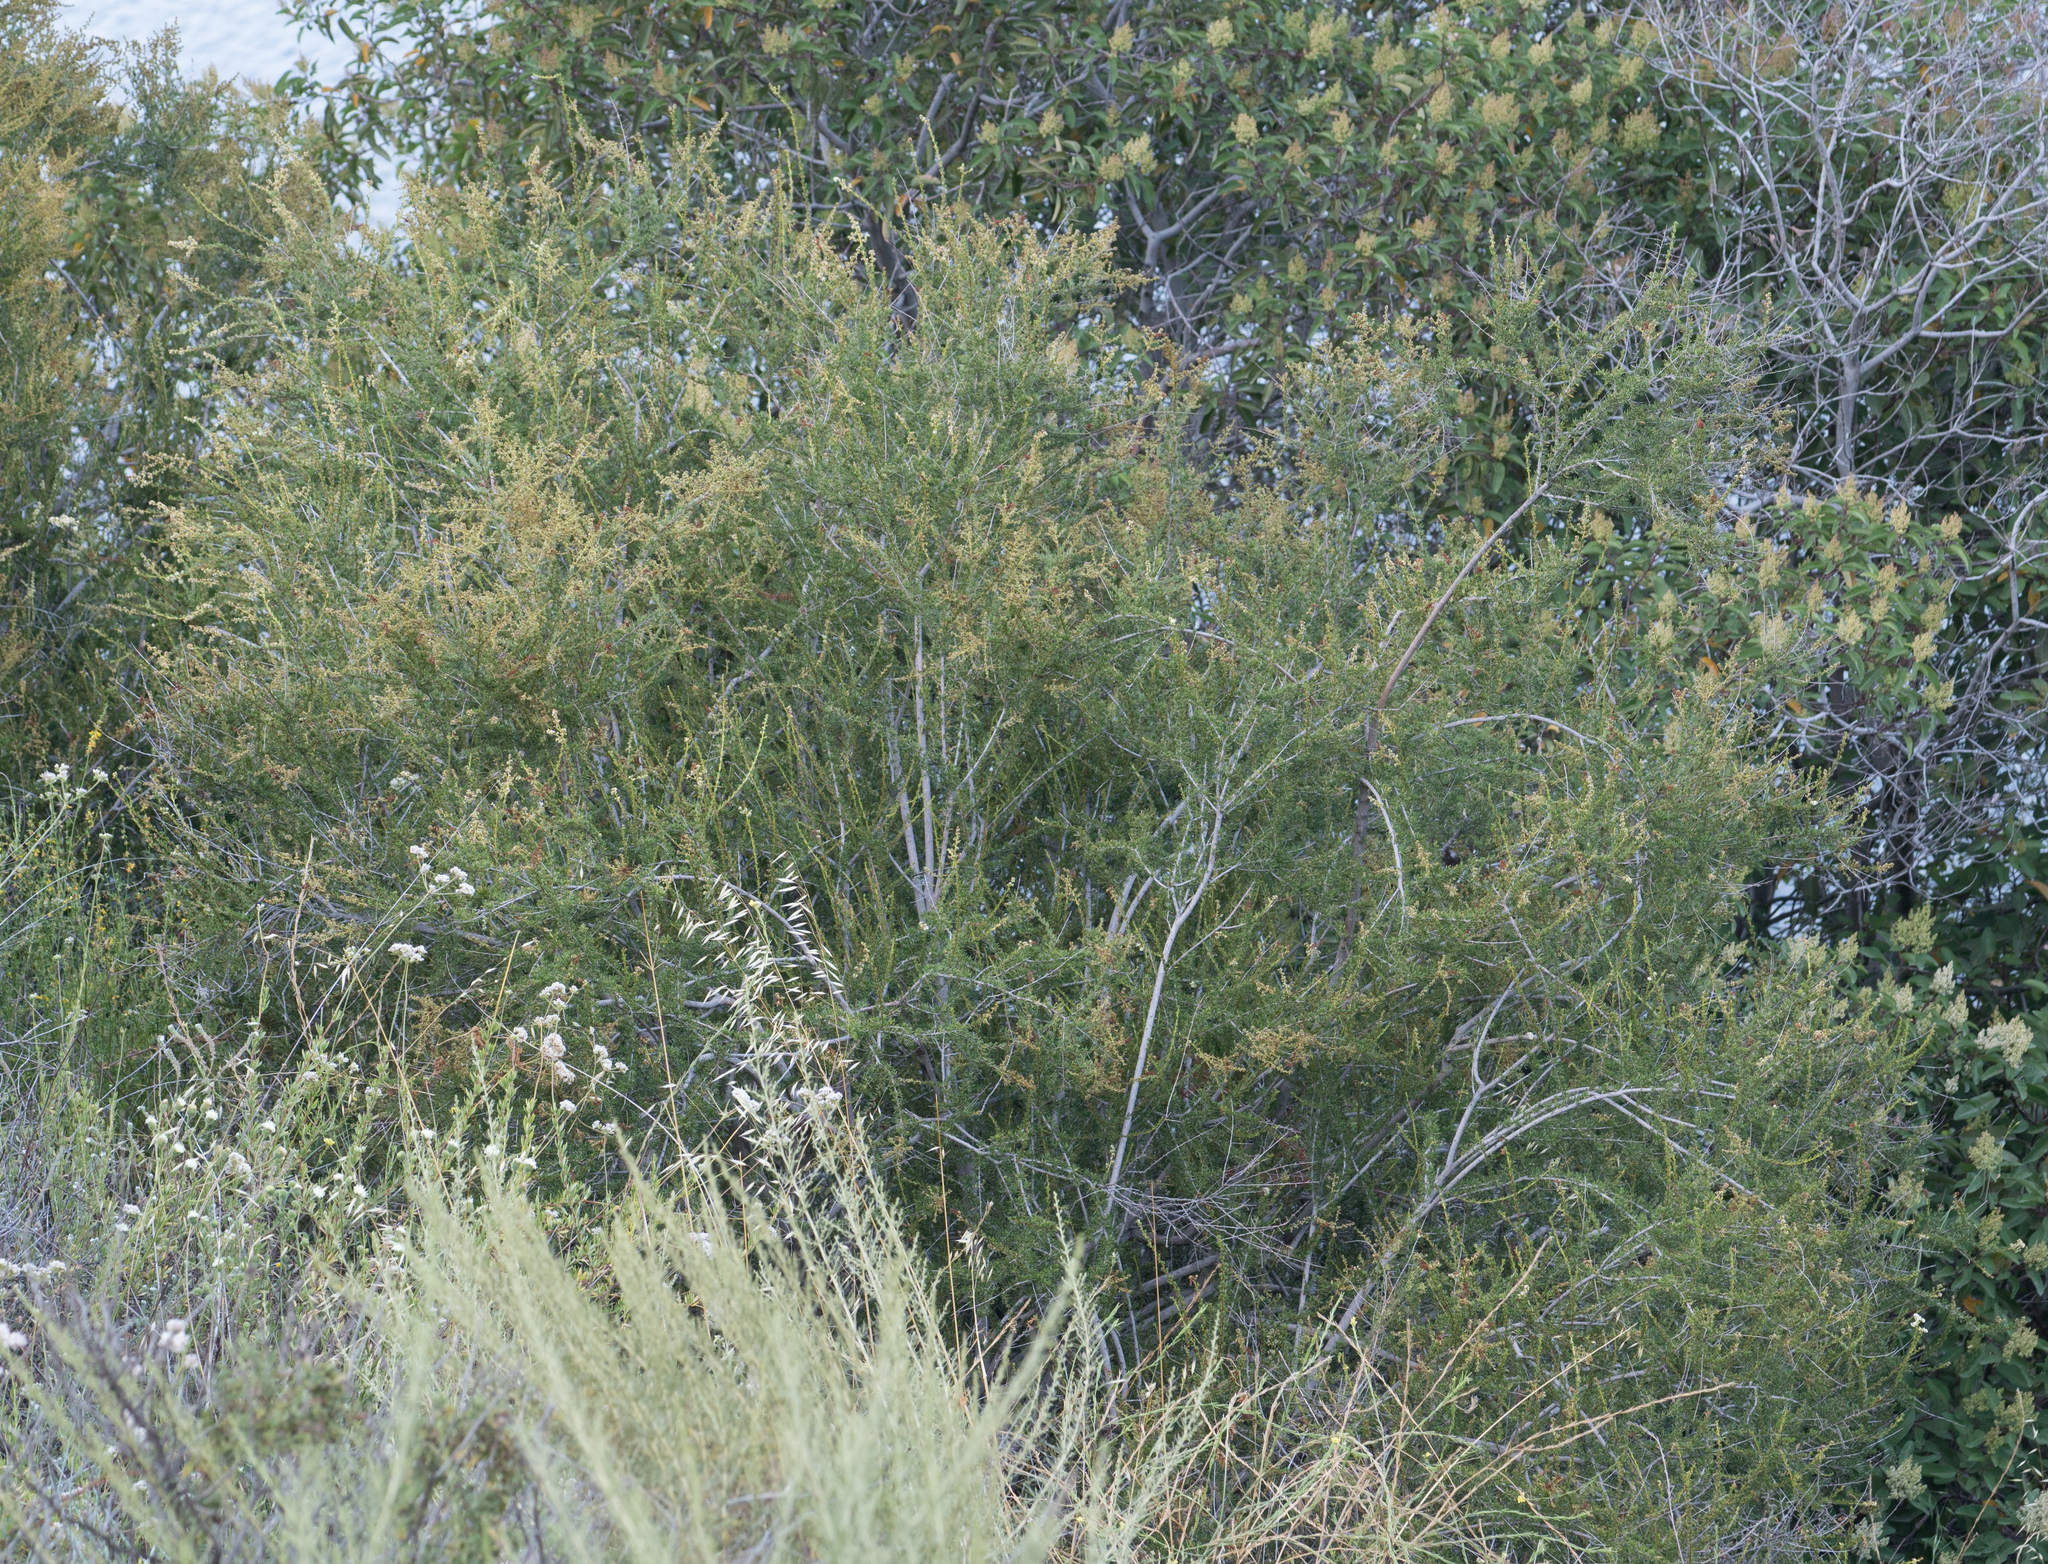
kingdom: Plantae
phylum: Tracheophyta
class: Magnoliopsida
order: Rosales
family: Rosaceae
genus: Adenostoma
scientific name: Adenostoma fasciculatum
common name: Chamise
